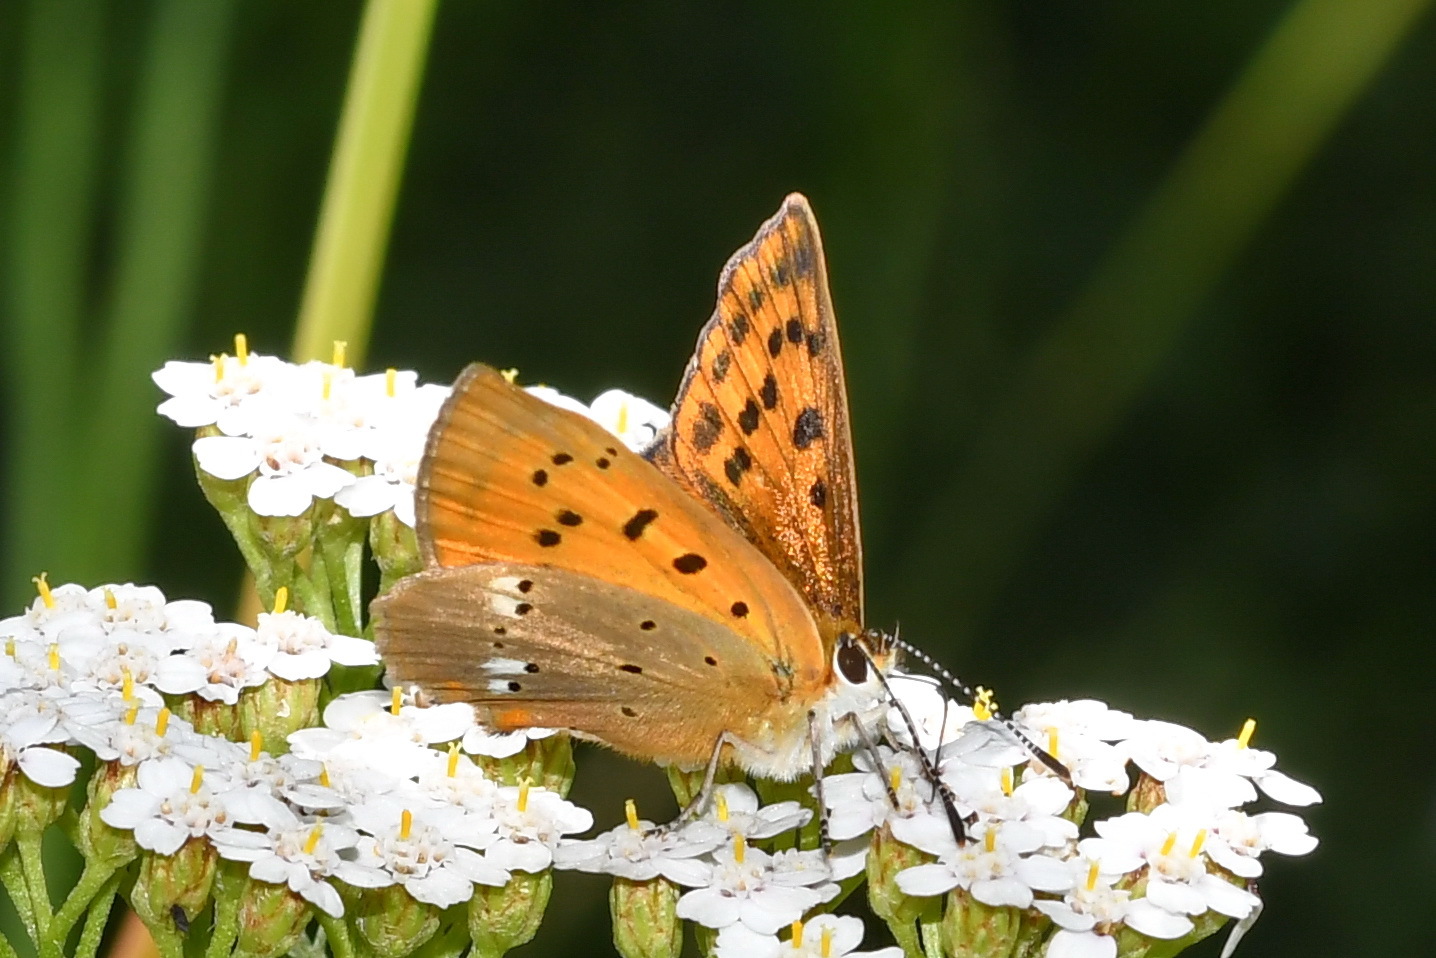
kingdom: Animalia
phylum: Arthropoda
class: Insecta
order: Lepidoptera
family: Lycaenidae
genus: Lycaena
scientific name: Lycaena virgaureae
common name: Scarce copper
